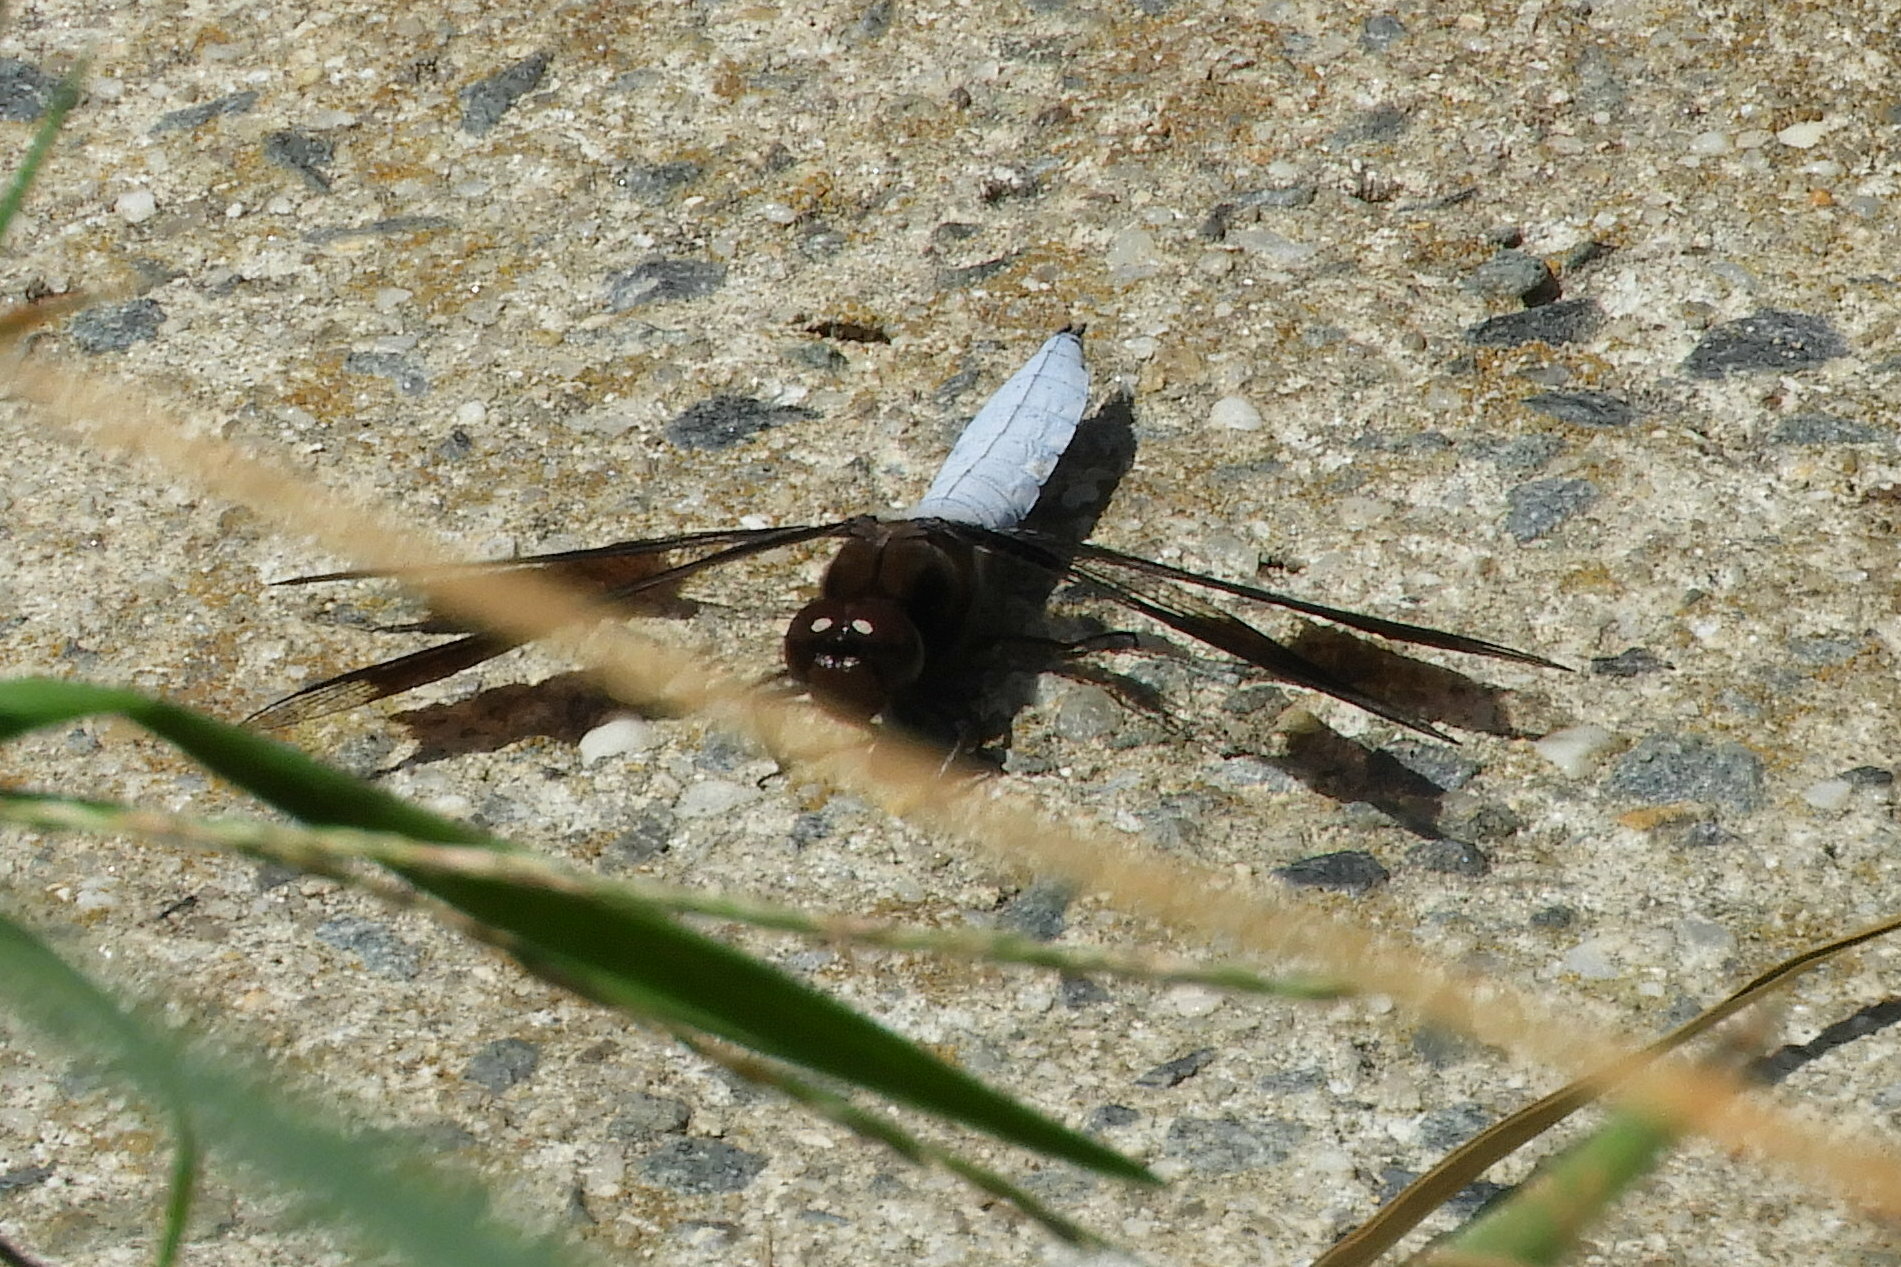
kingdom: Animalia
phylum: Arthropoda
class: Insecta
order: Odonata
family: Libellulidae
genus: Plathemis
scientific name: Plathemis lydia
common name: Common whitetail
